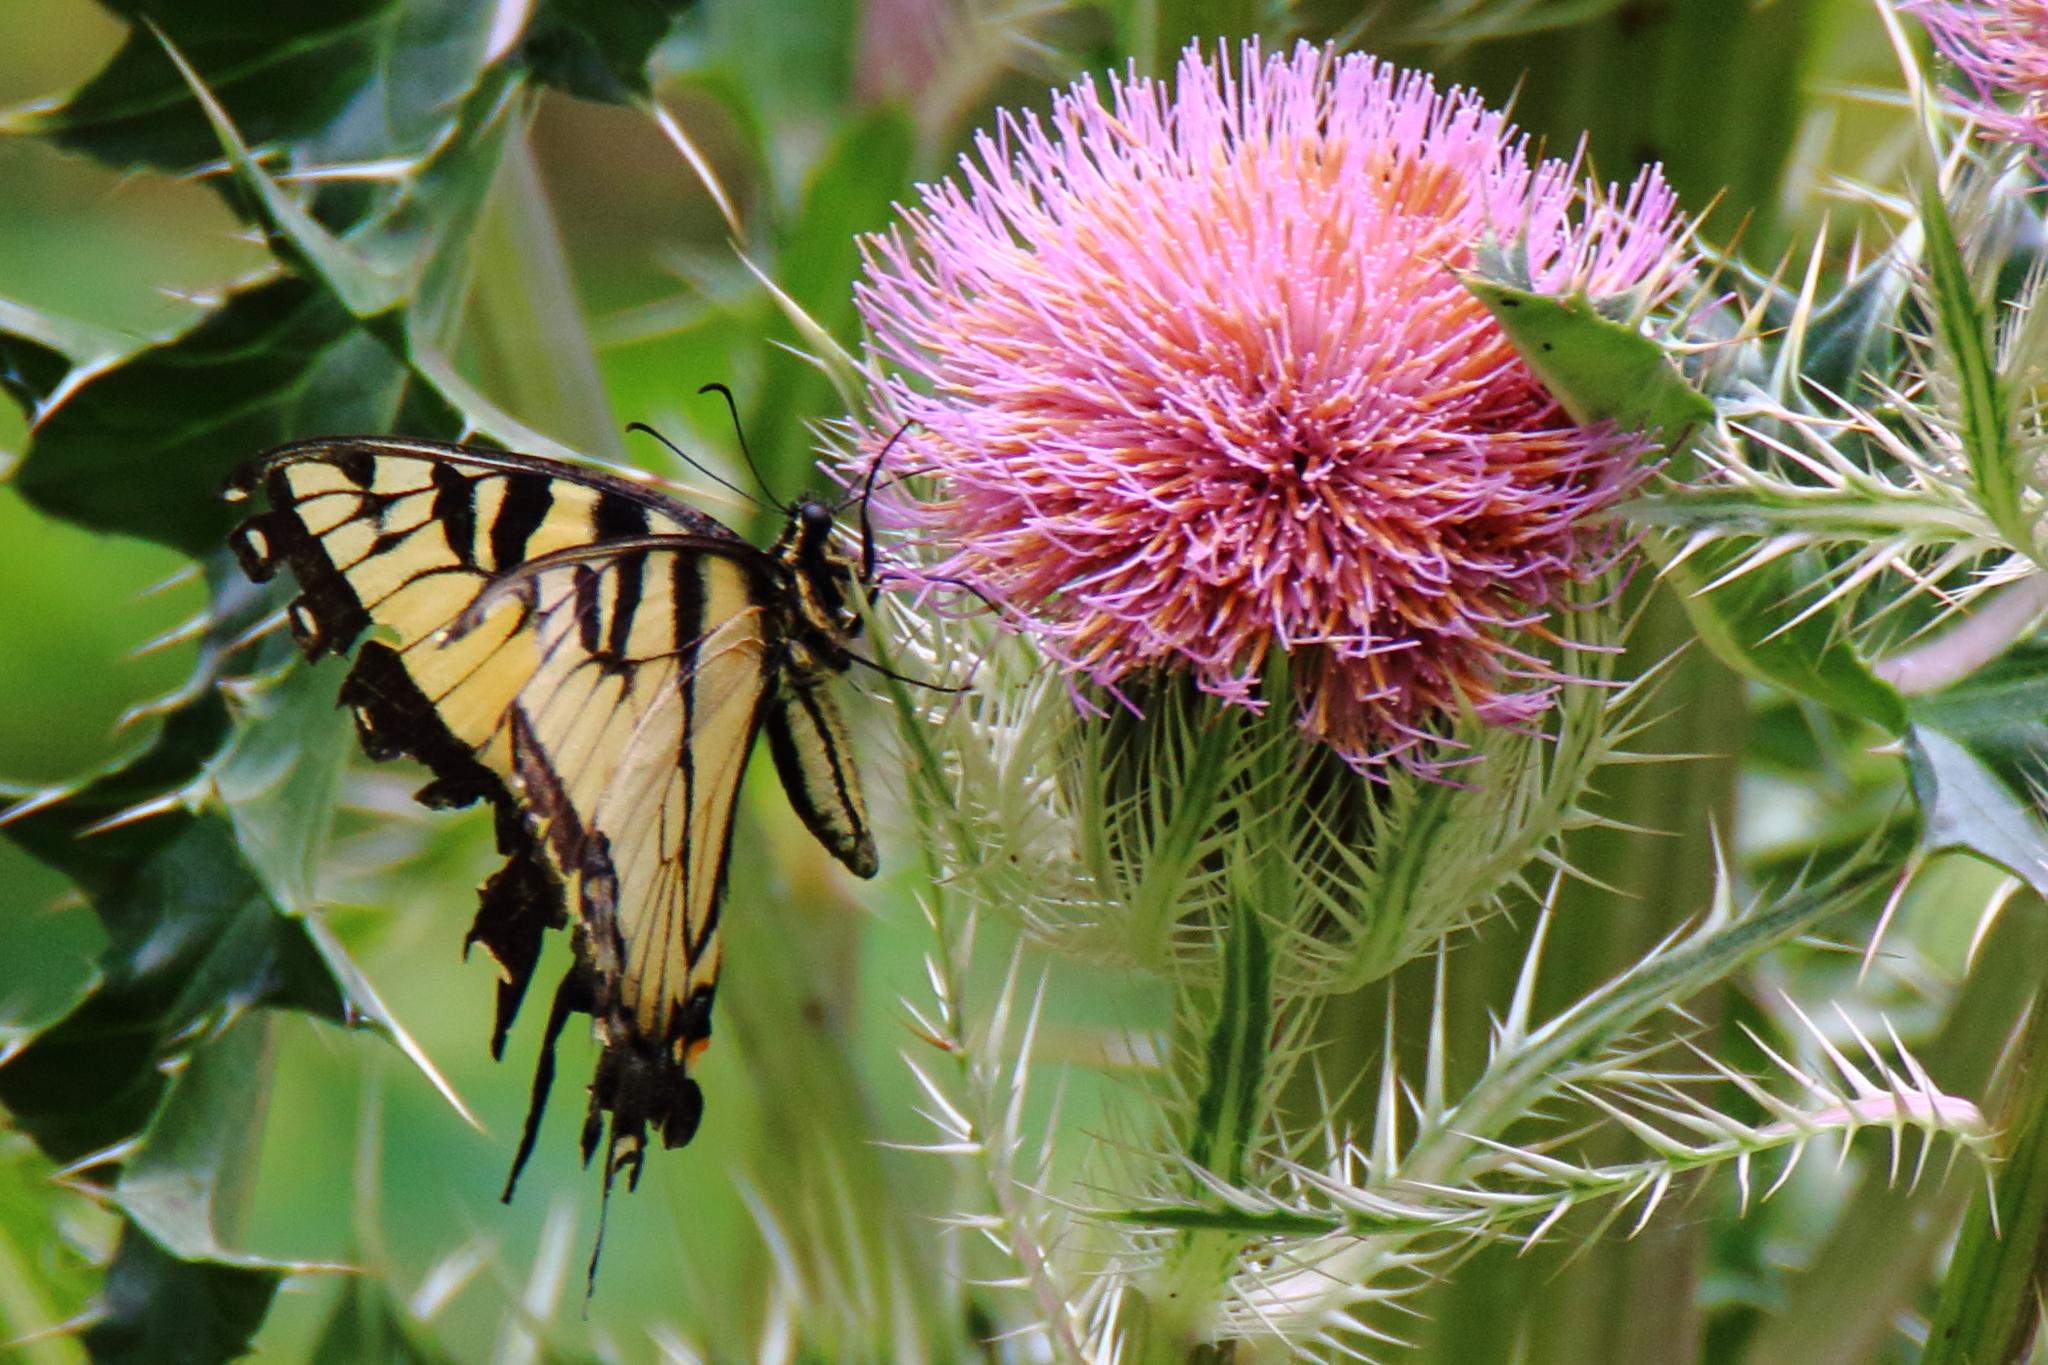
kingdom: Animalia
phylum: Arthropoda
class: Insecta
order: Lepidoptera
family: Papilionidae
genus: Papilio
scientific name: Papilio glaucus
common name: Tiger swallowtail
